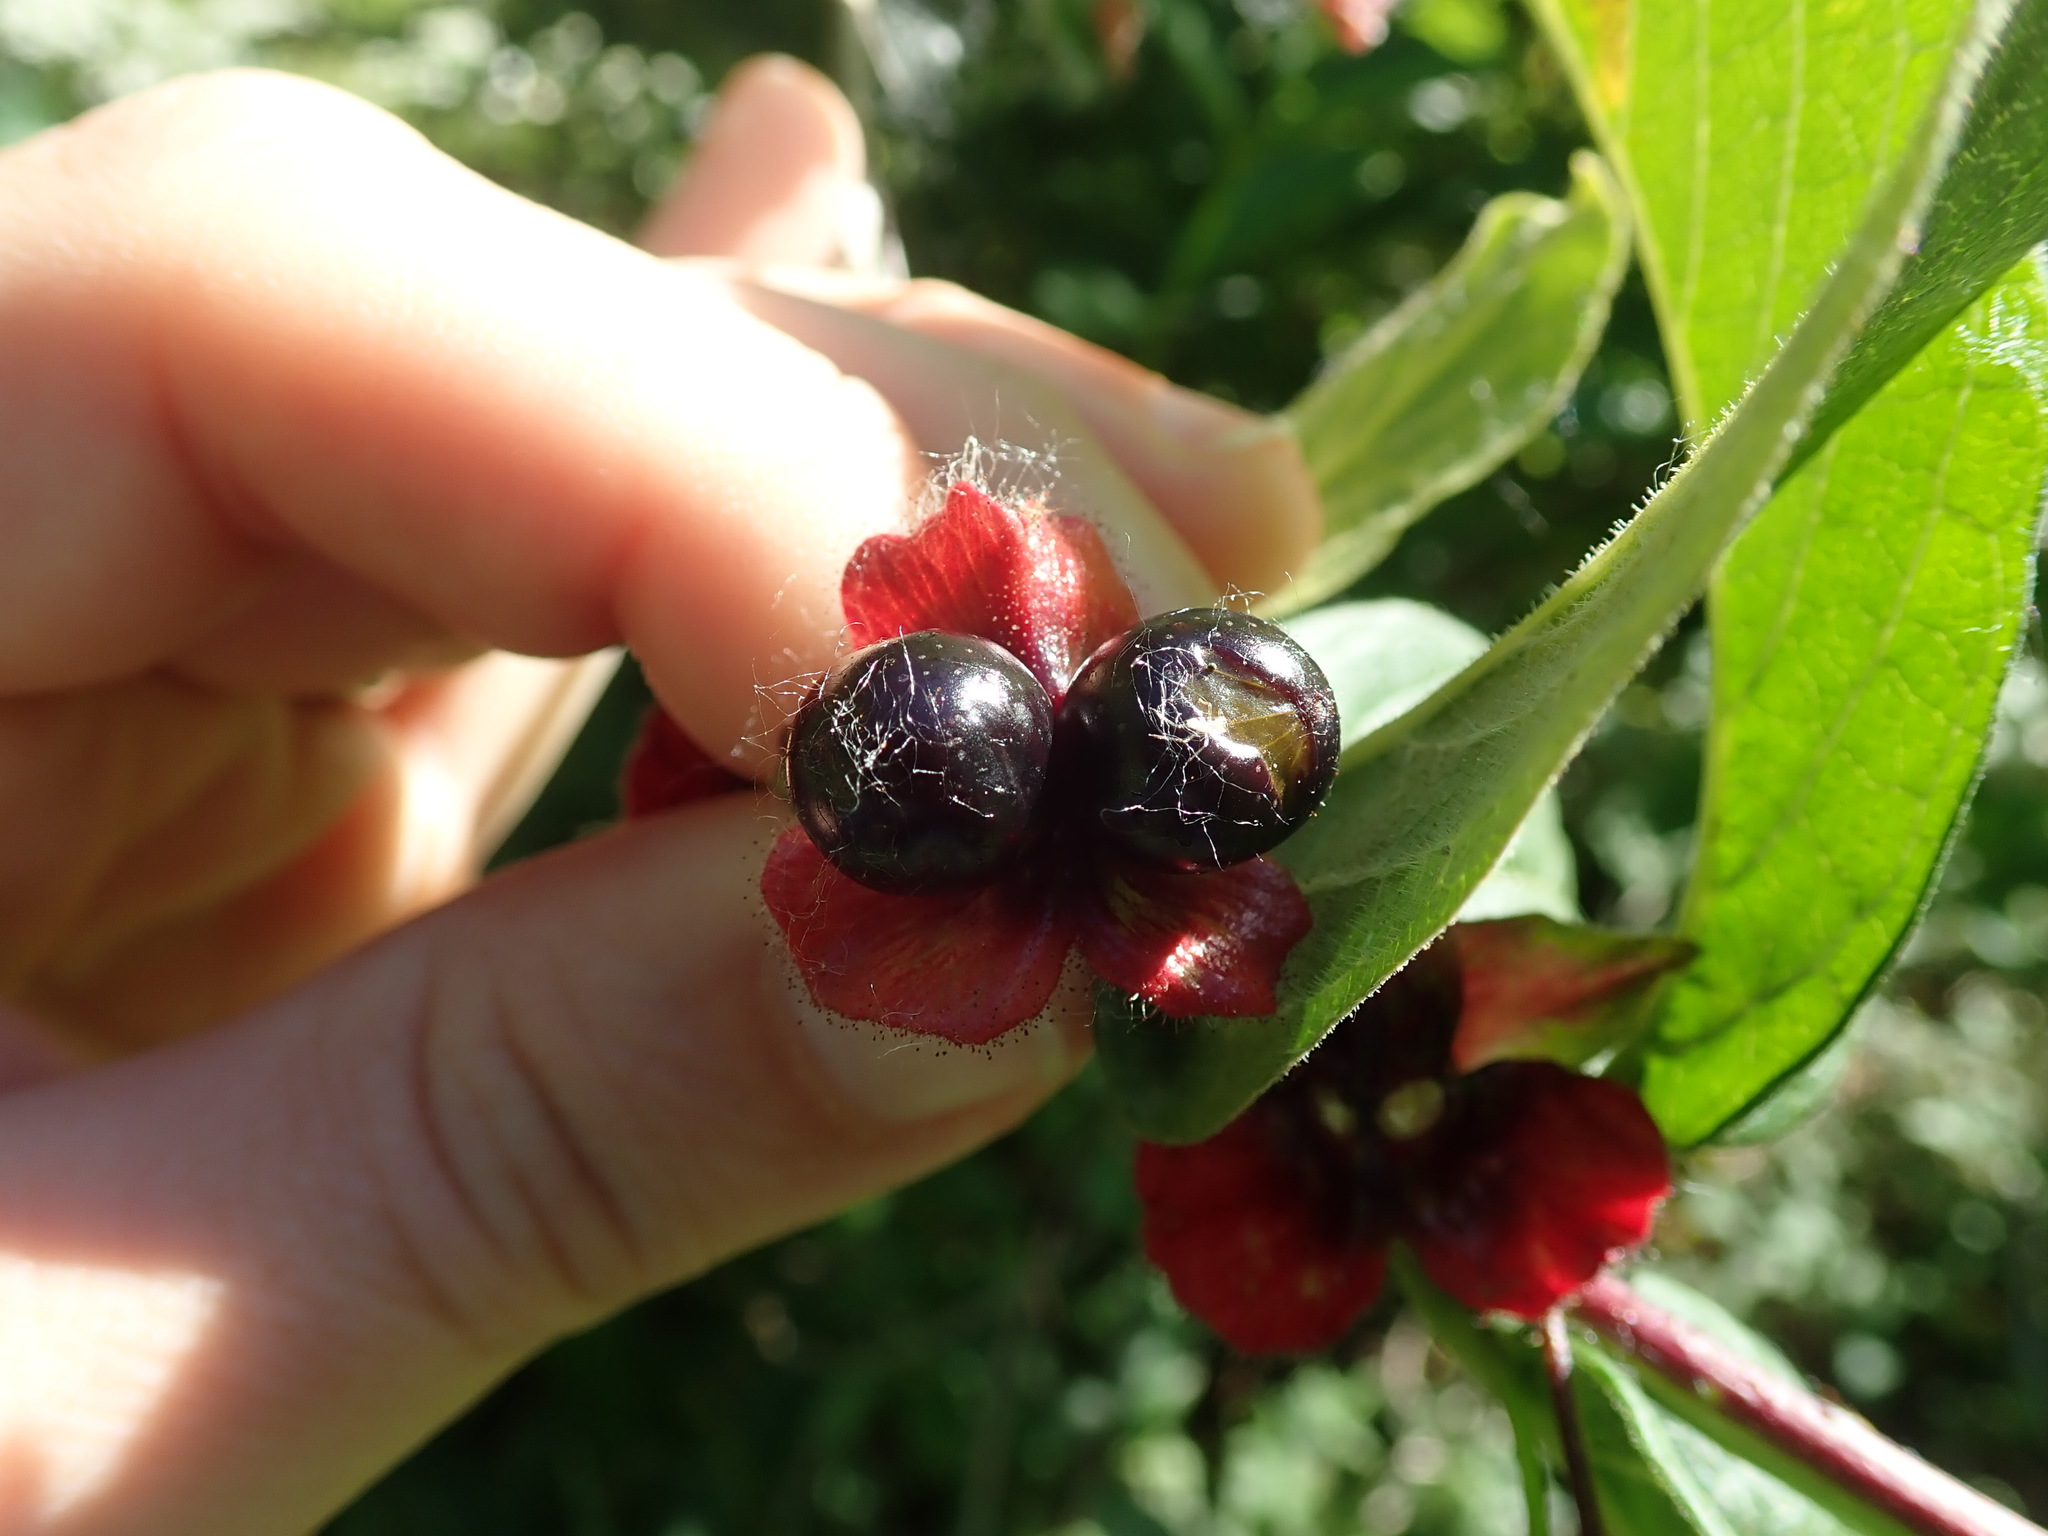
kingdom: Plantae
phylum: Tracheophyta
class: Magnoliopsida
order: Dipsacales
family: Caprifoliaceae
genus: Lonicera
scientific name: Lonicera involucrata
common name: Californian honeysuckle
